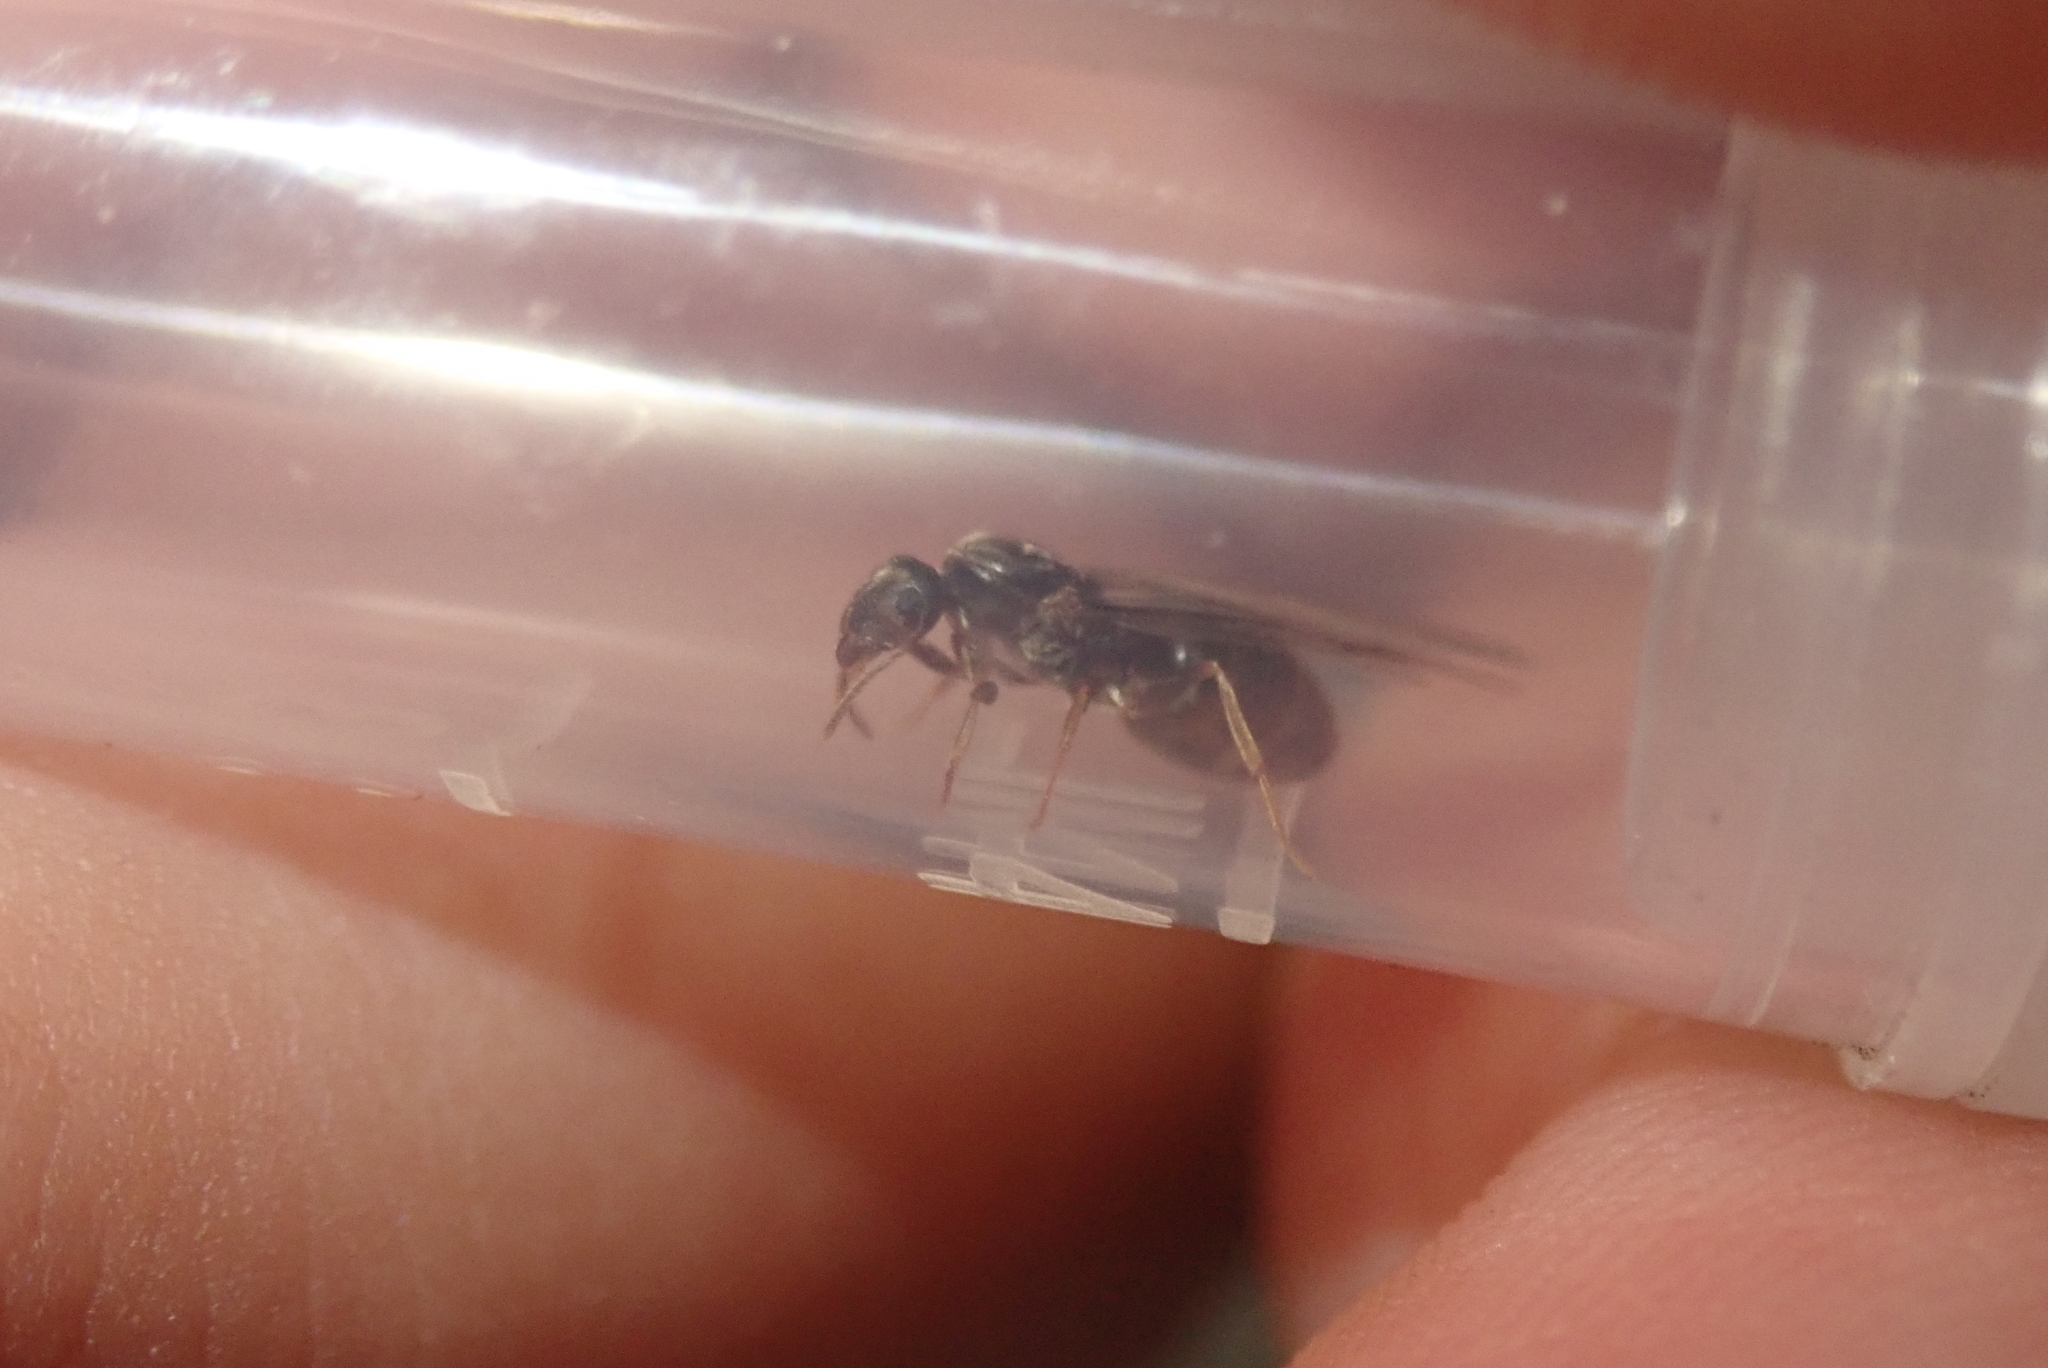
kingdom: Animalia
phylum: Arthropoda
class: Insecta
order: Hymenoptera
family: Formicidae
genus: Lasius
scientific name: Lasius americanus
